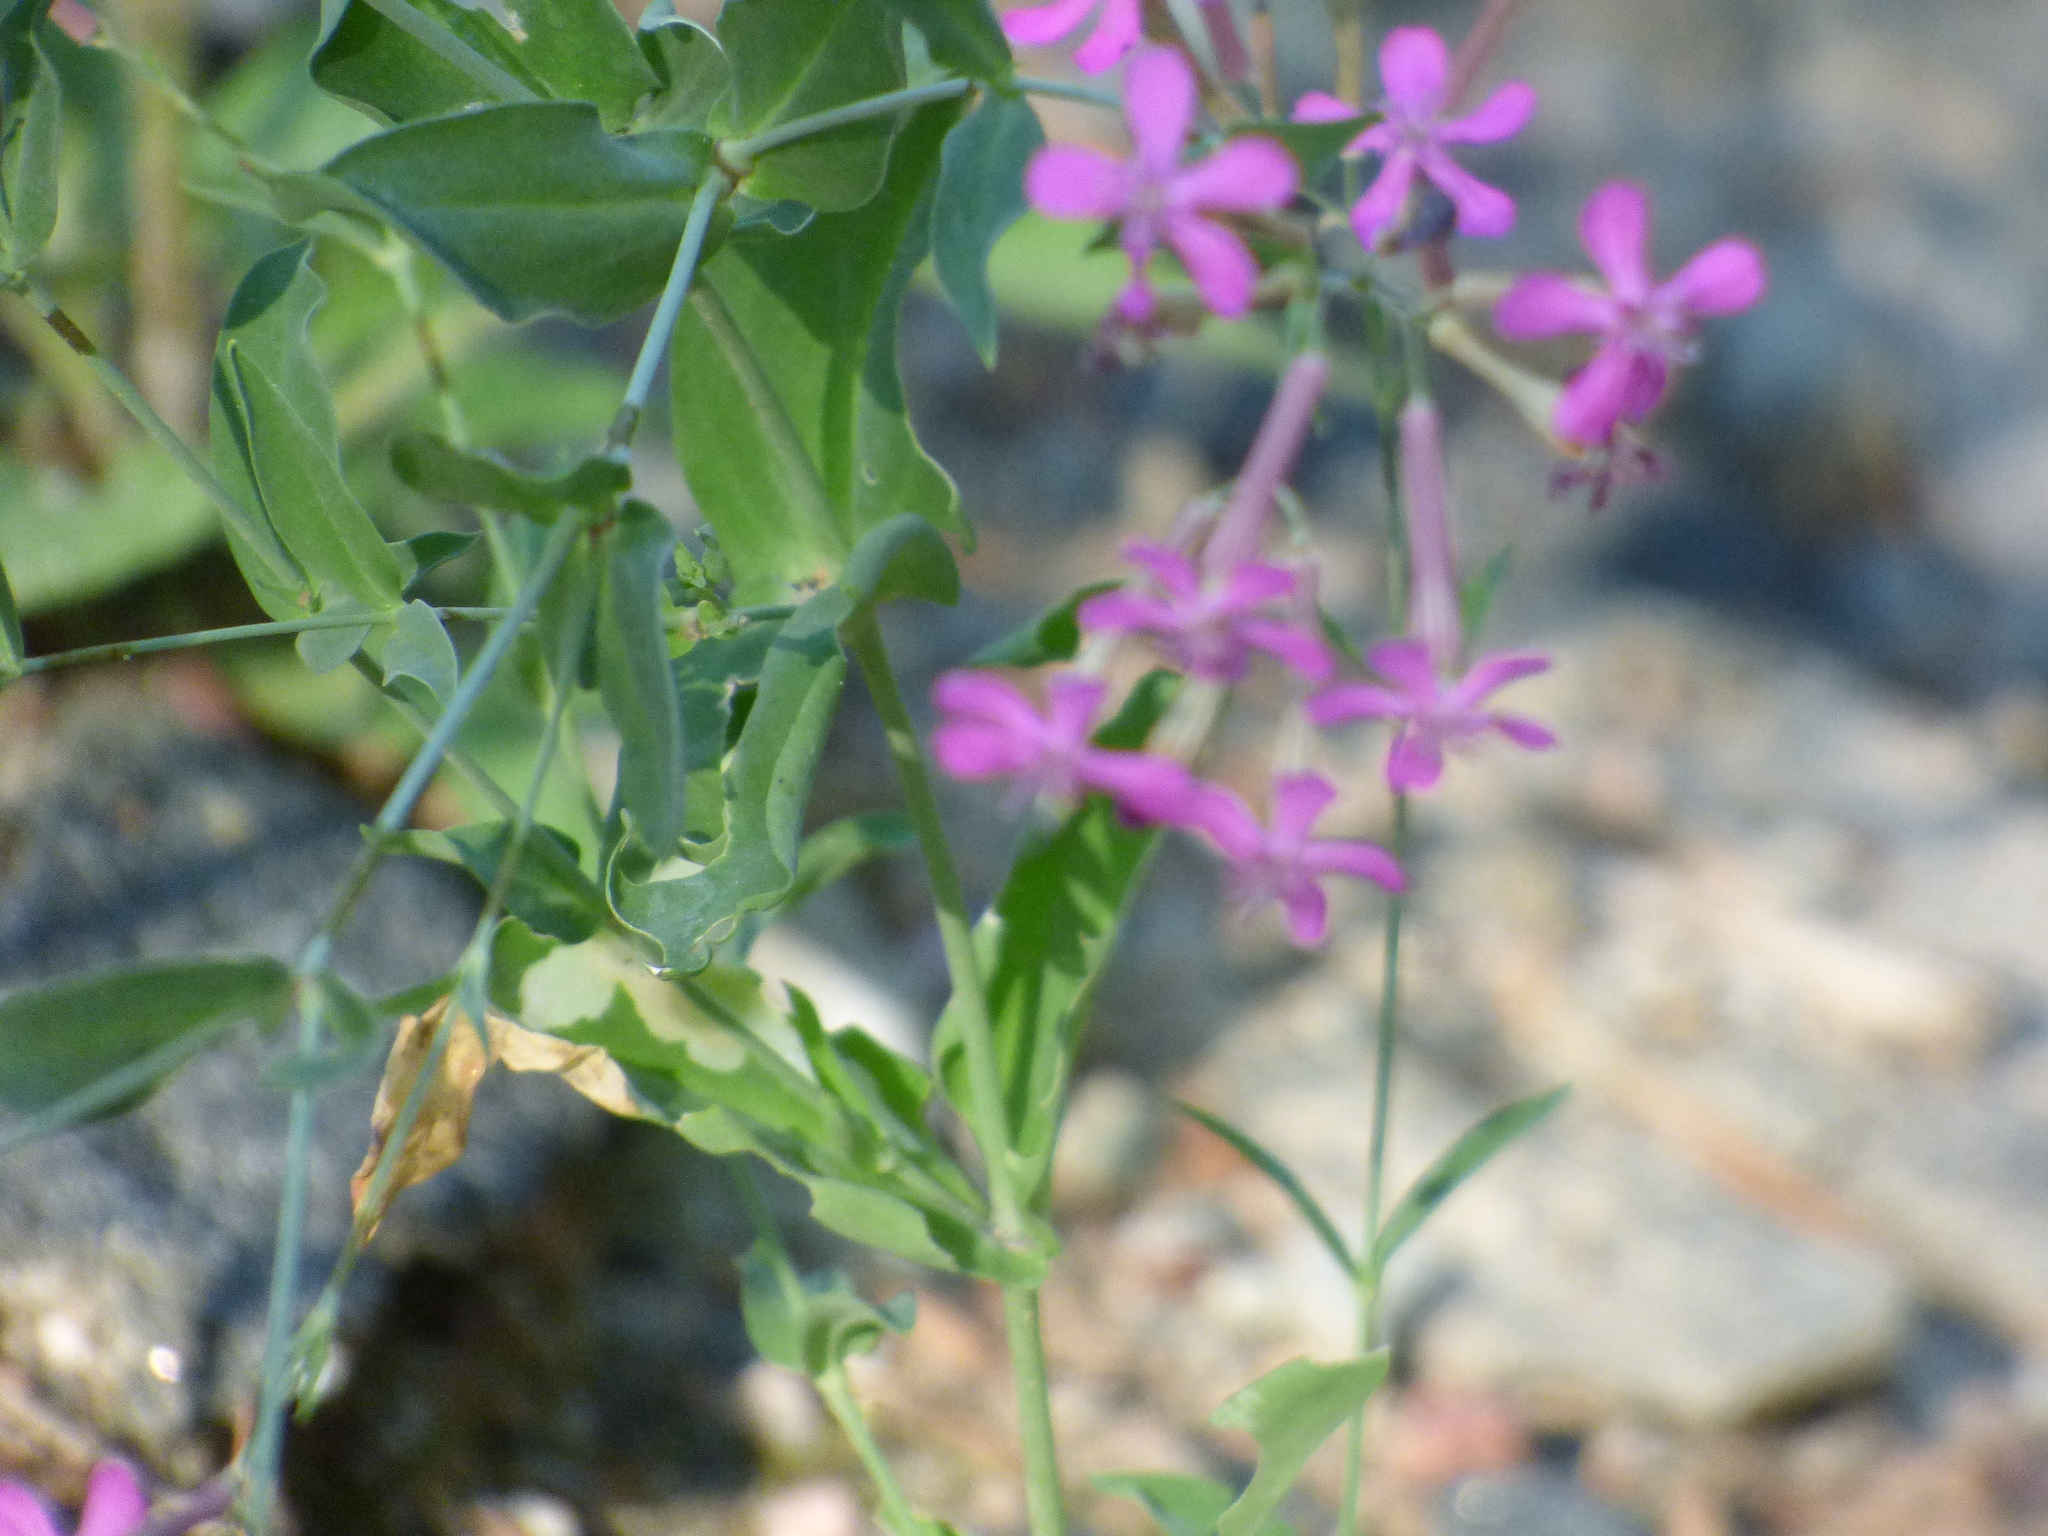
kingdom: Plantae
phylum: Tracheophyta
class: Magnoliopsida
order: Caryophyllales
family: Caryophyllaceae
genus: Atocion
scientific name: Atocion armeria
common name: Sweet william catchfly
